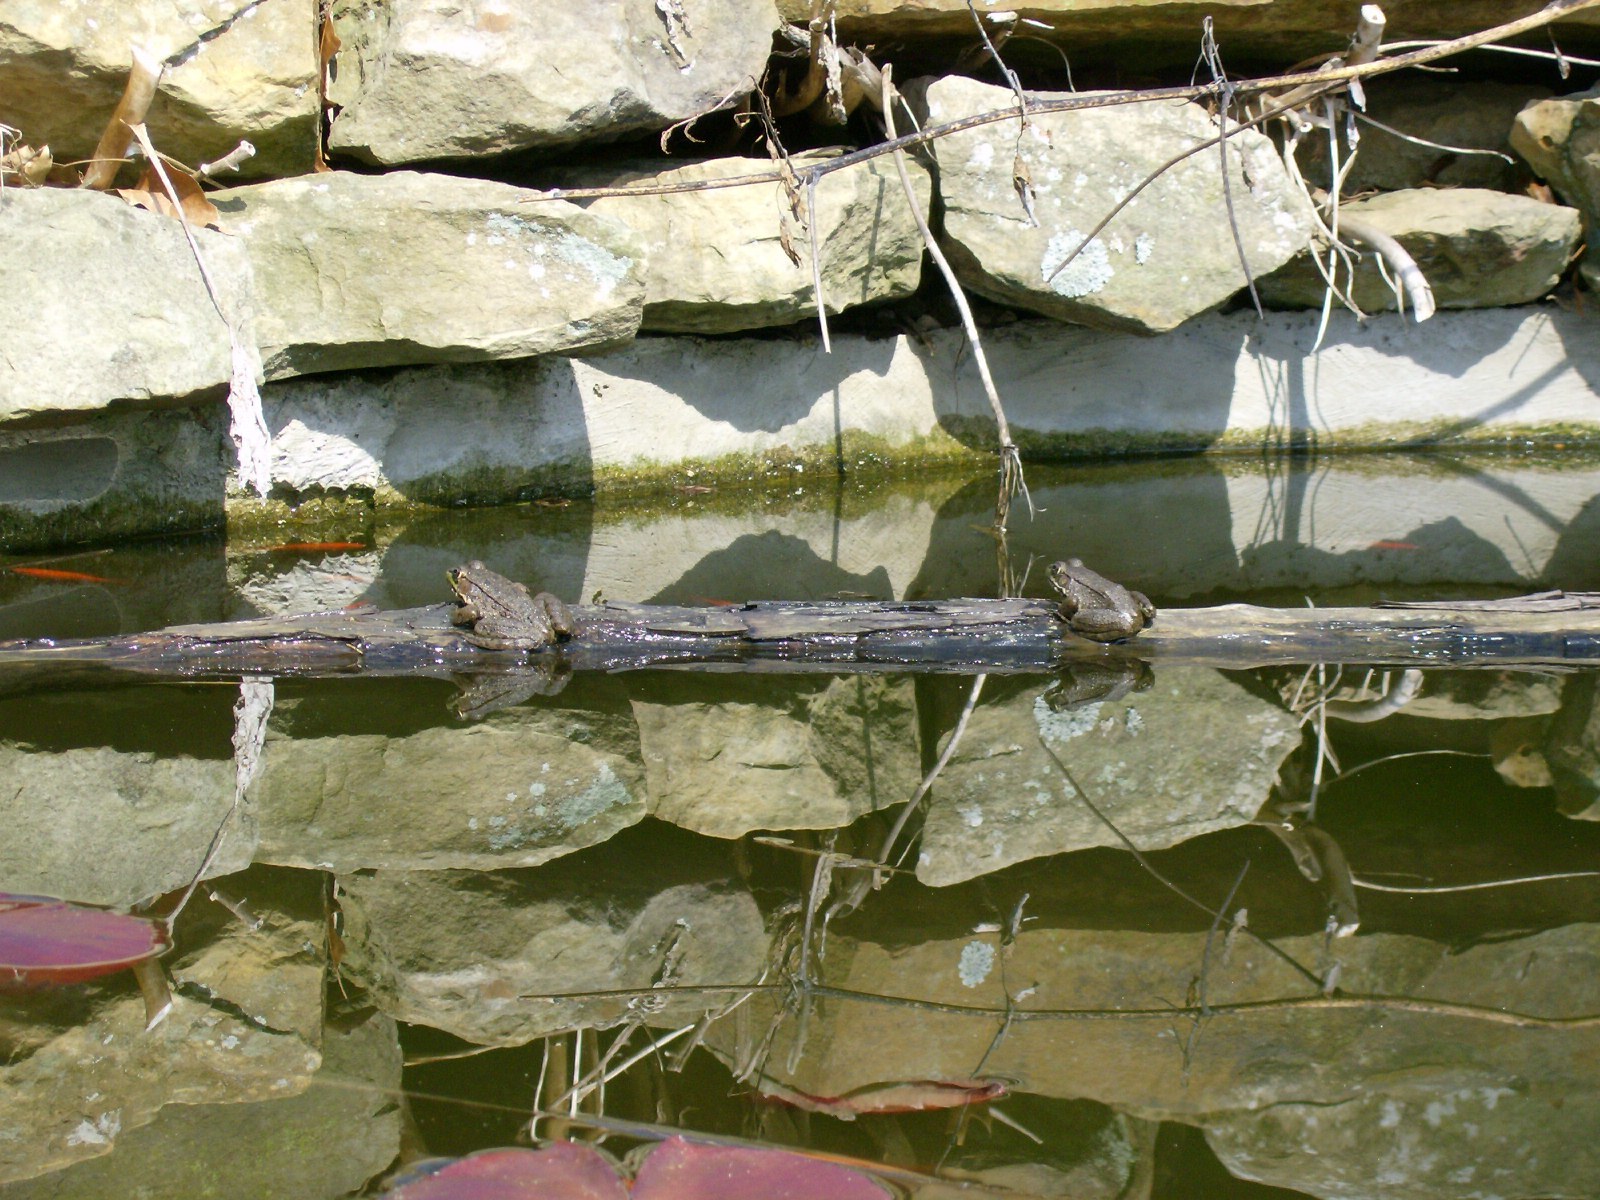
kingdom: Animalia
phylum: Chordata
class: Amphibia
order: Anura
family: Ranidae
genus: Lithobates
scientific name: Lithobates clamitans
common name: Green frog
